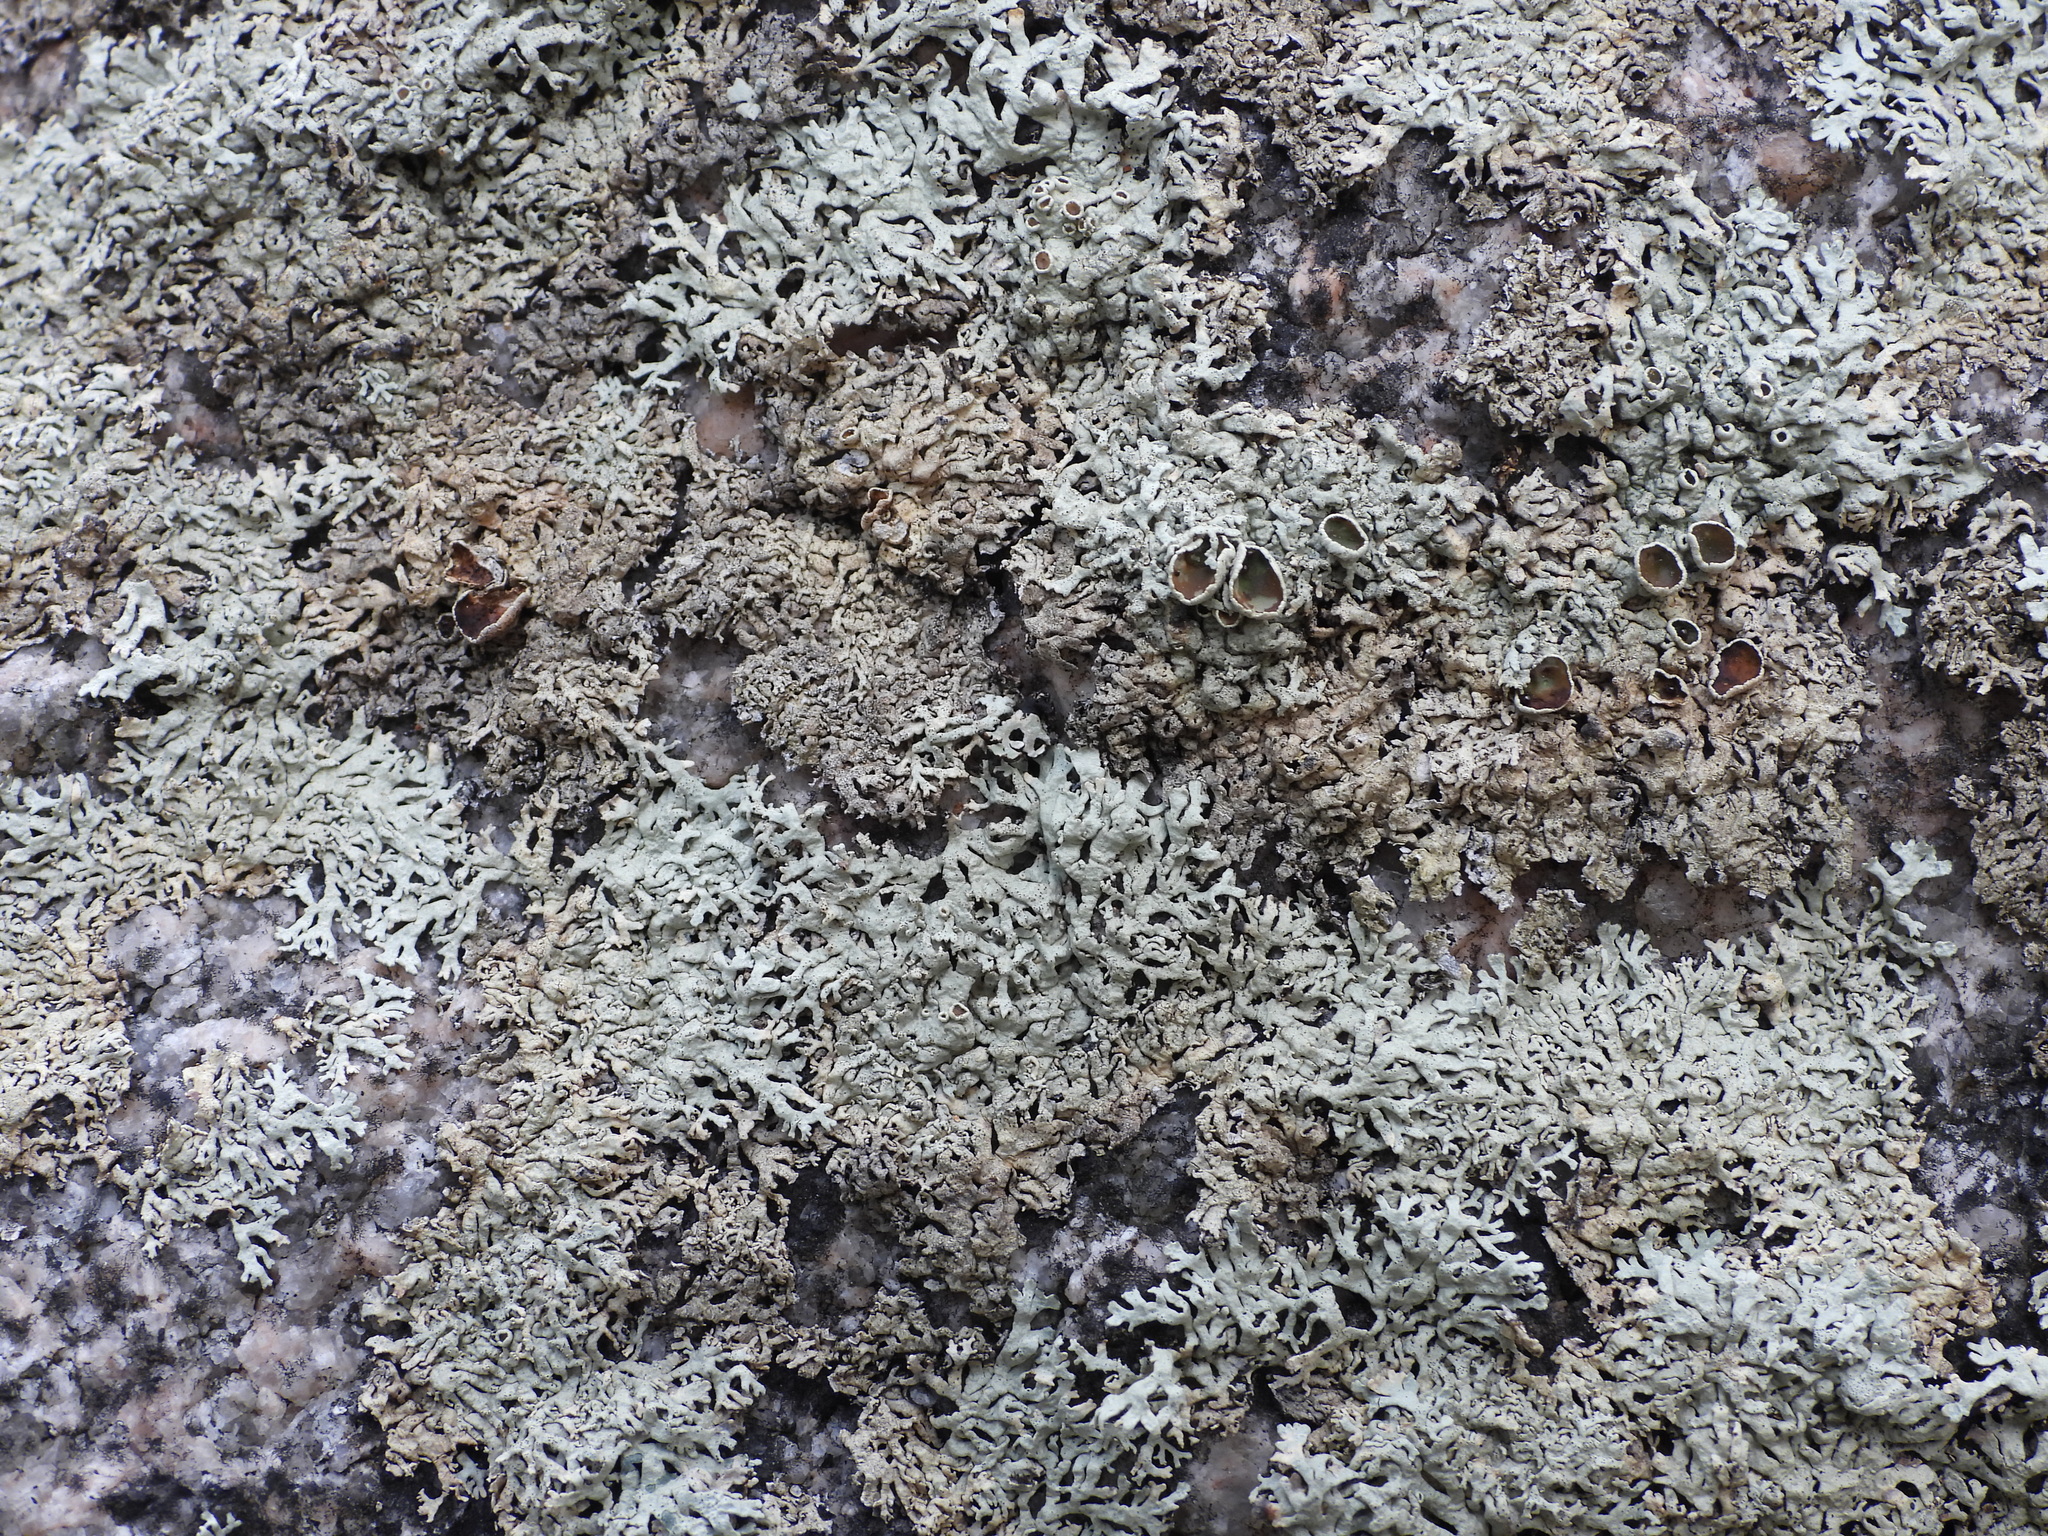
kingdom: Fungi
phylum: Ascomycota
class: Lecanoromycetes
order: Lecanorales
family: Parmeliaceae
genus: Arctoparmelia
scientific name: Arctoparmelia centrifuga
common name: Concentric ring lichen
